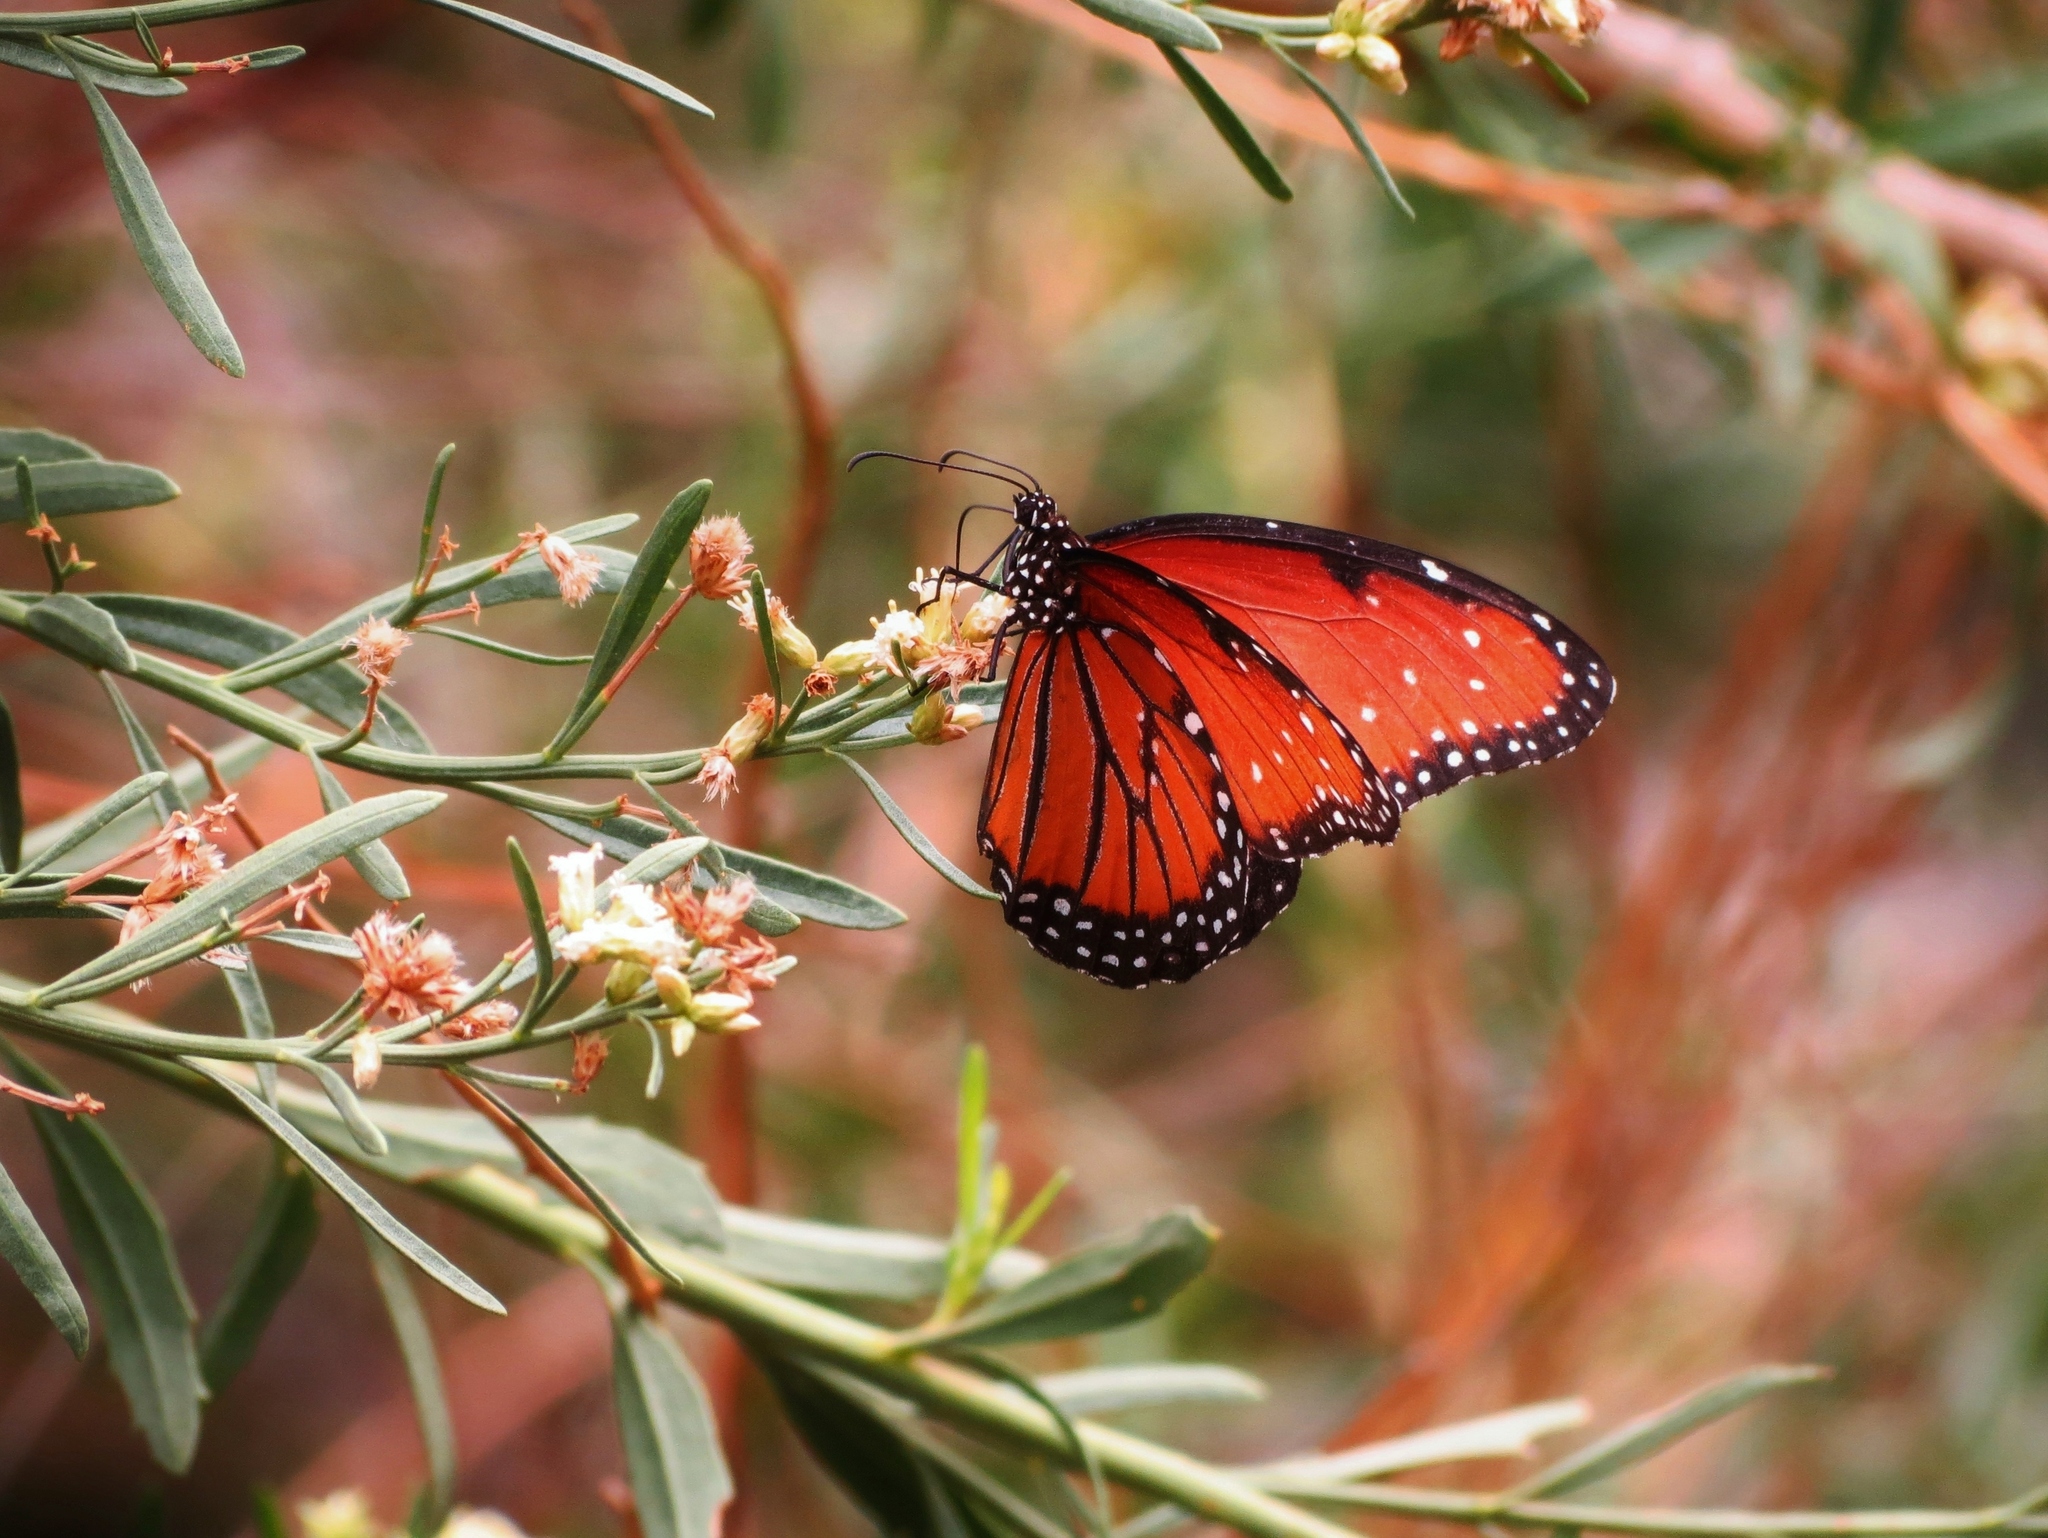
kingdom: Animalia
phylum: Arthropoda
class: Insecta
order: Lepidoptera
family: Nymphalidae
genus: Danaus
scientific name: Danaus gilippus
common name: Queen
